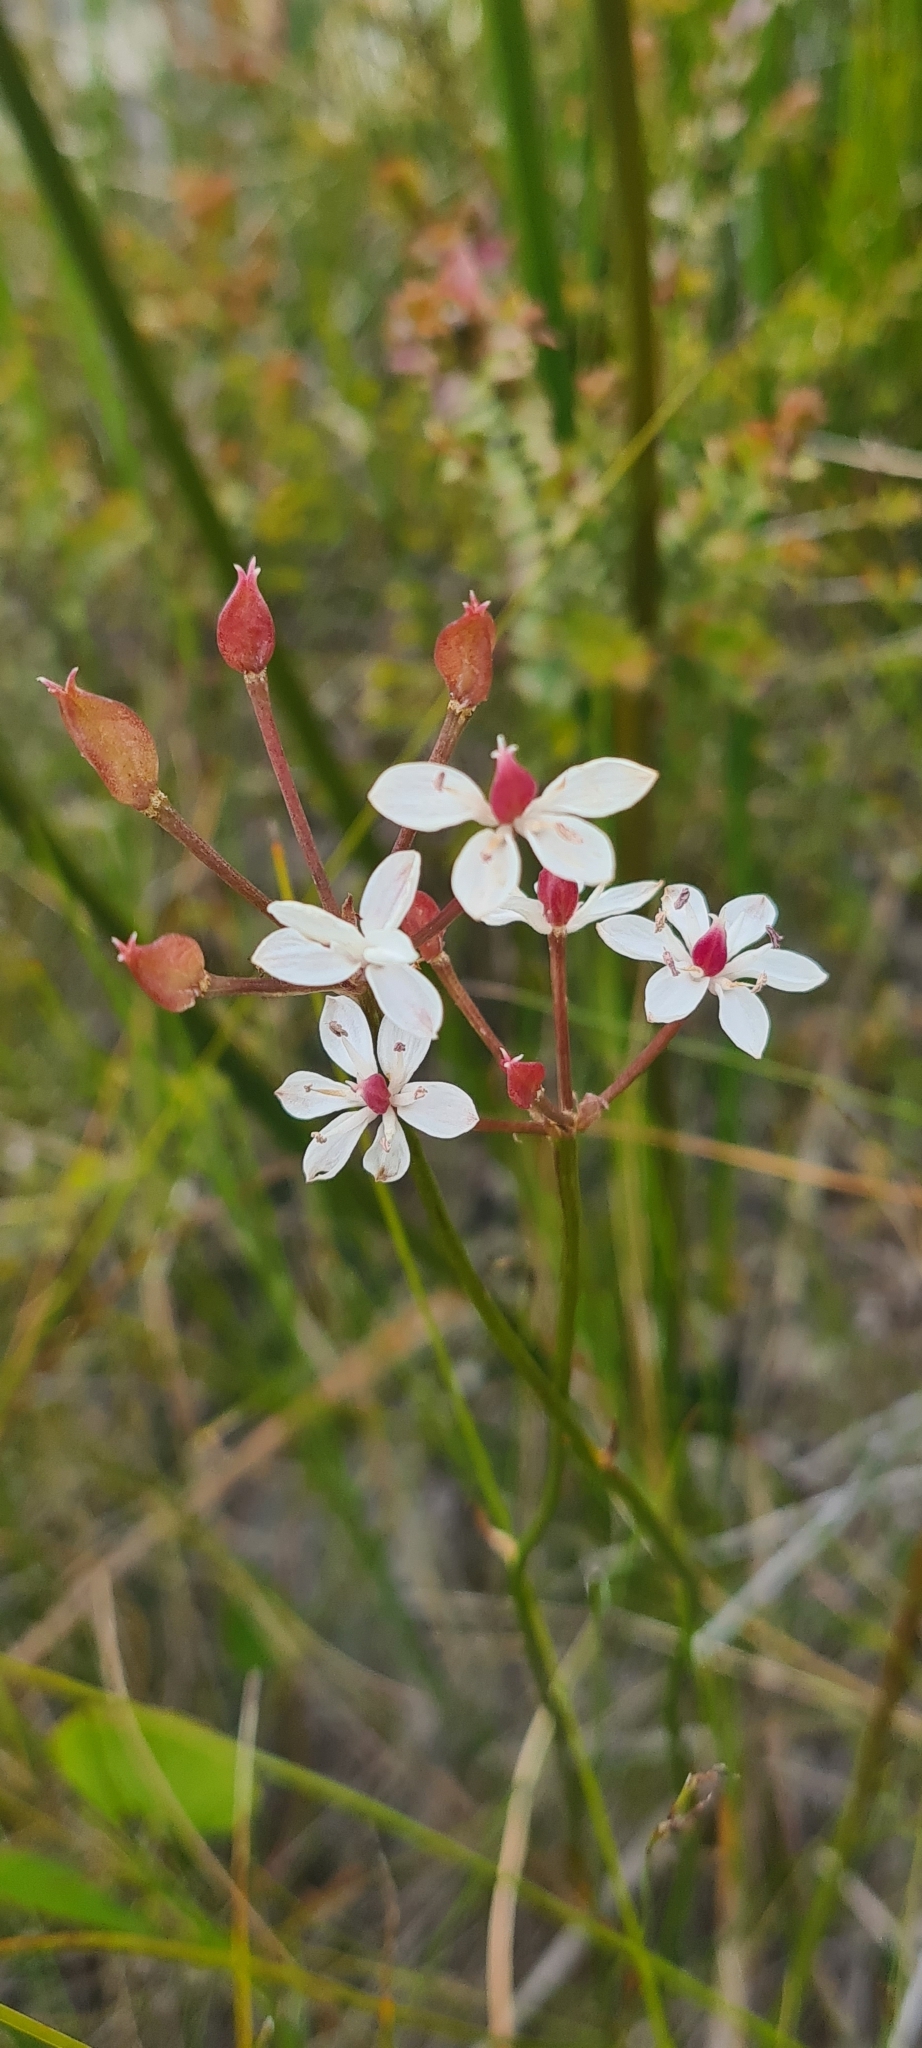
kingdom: Plantae
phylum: Tracheophyta
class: Liliopsida
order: Liliales
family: Colchicaceae
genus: Burchardia
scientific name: Burchardia umbellata
